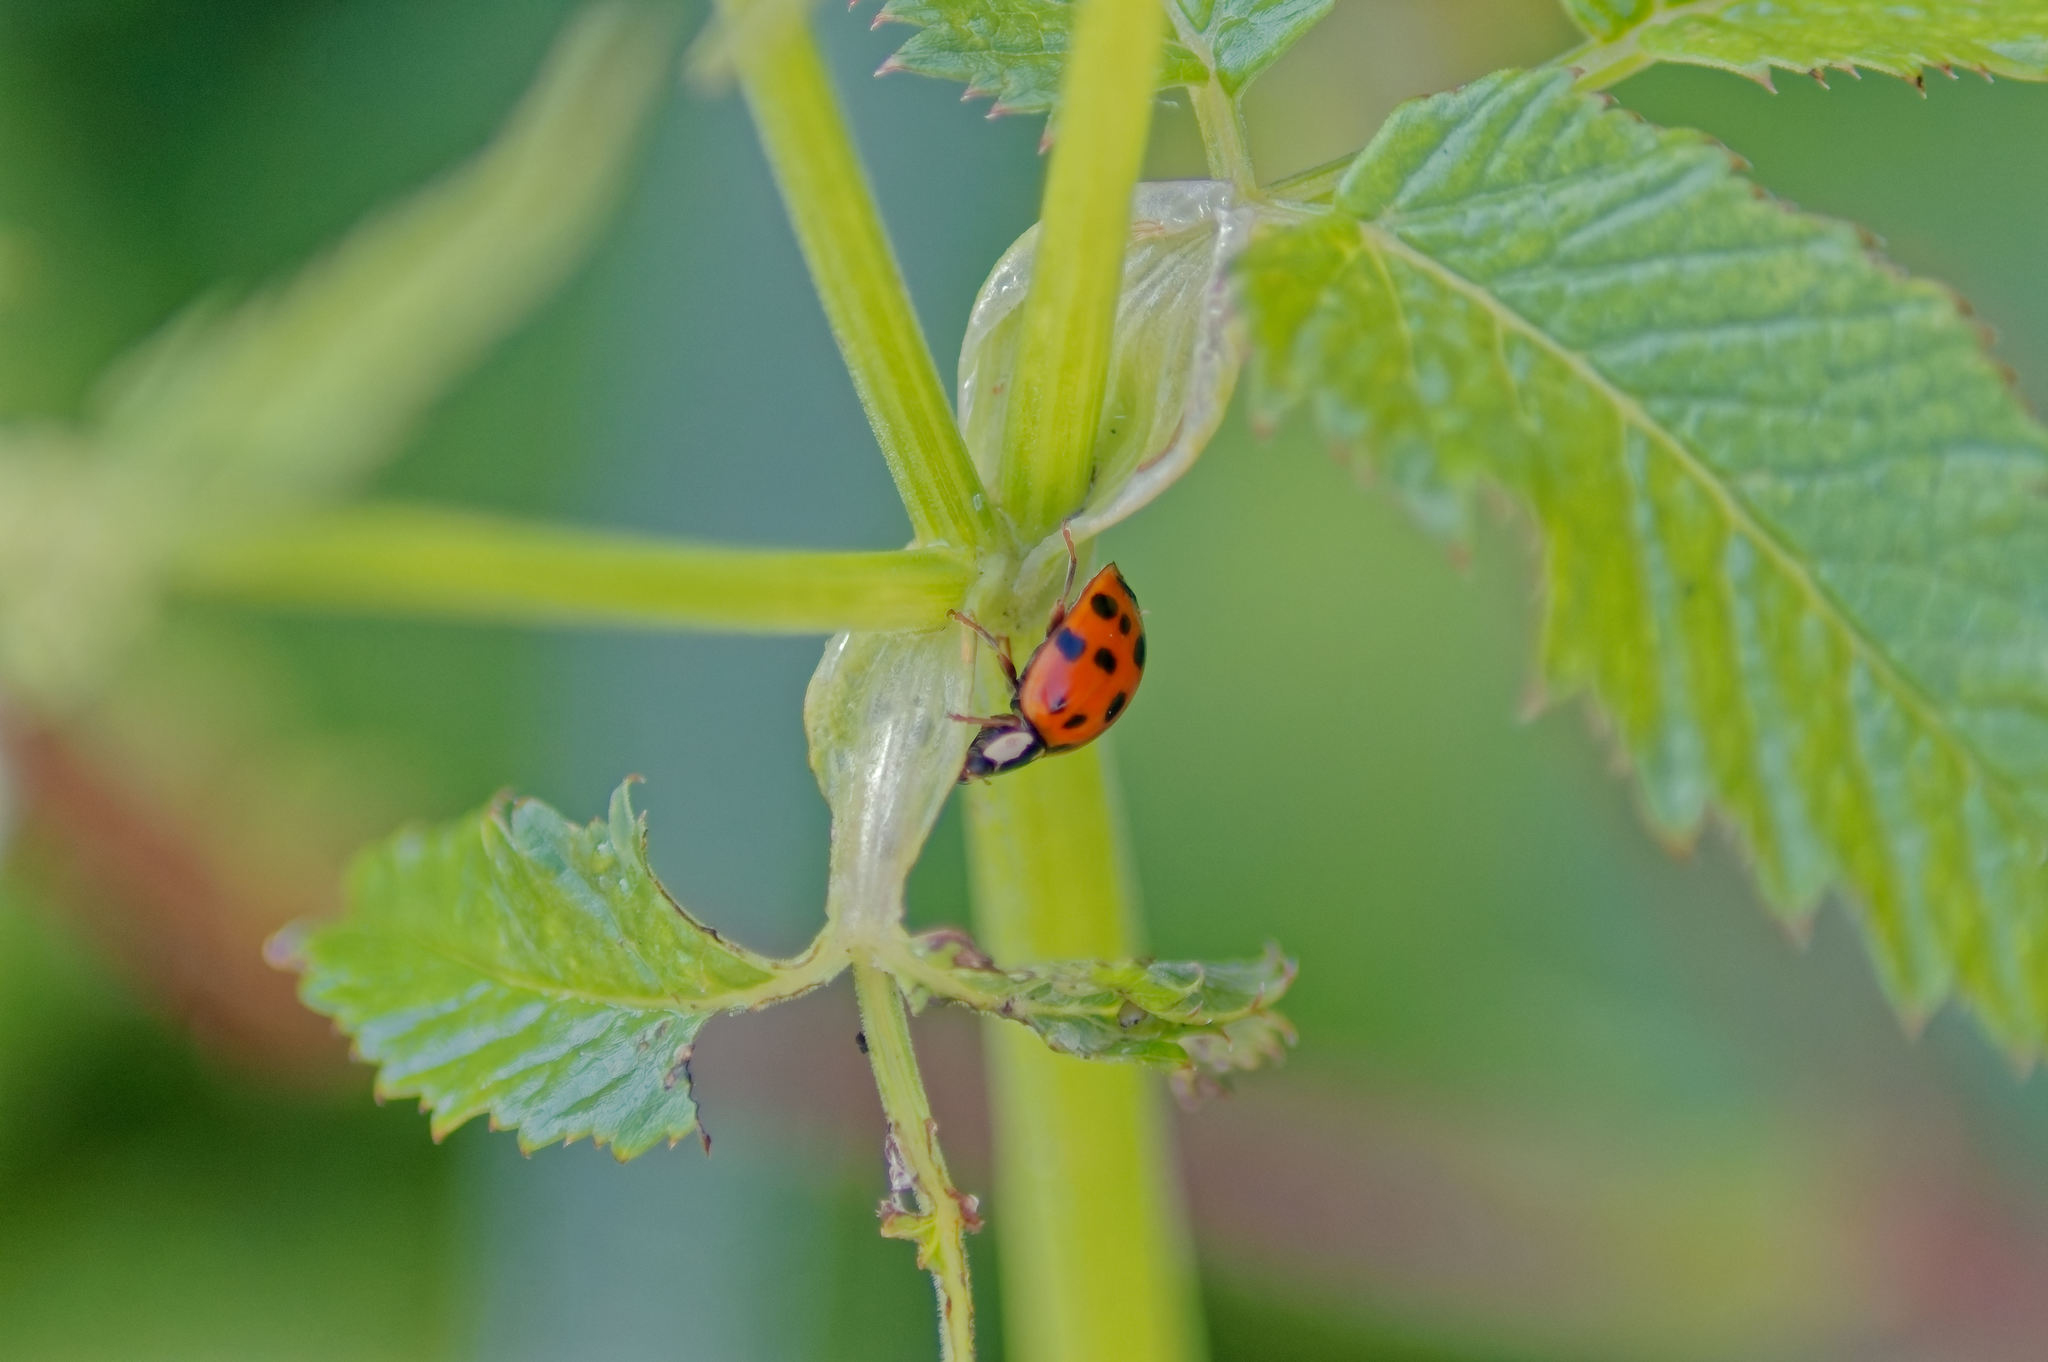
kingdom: Animalia
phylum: Arthropoda
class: Insecta
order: Coleoptera
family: Coccinellidae
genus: Harmonia
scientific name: Harmonia axyridis
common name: Harlequin ladybird
